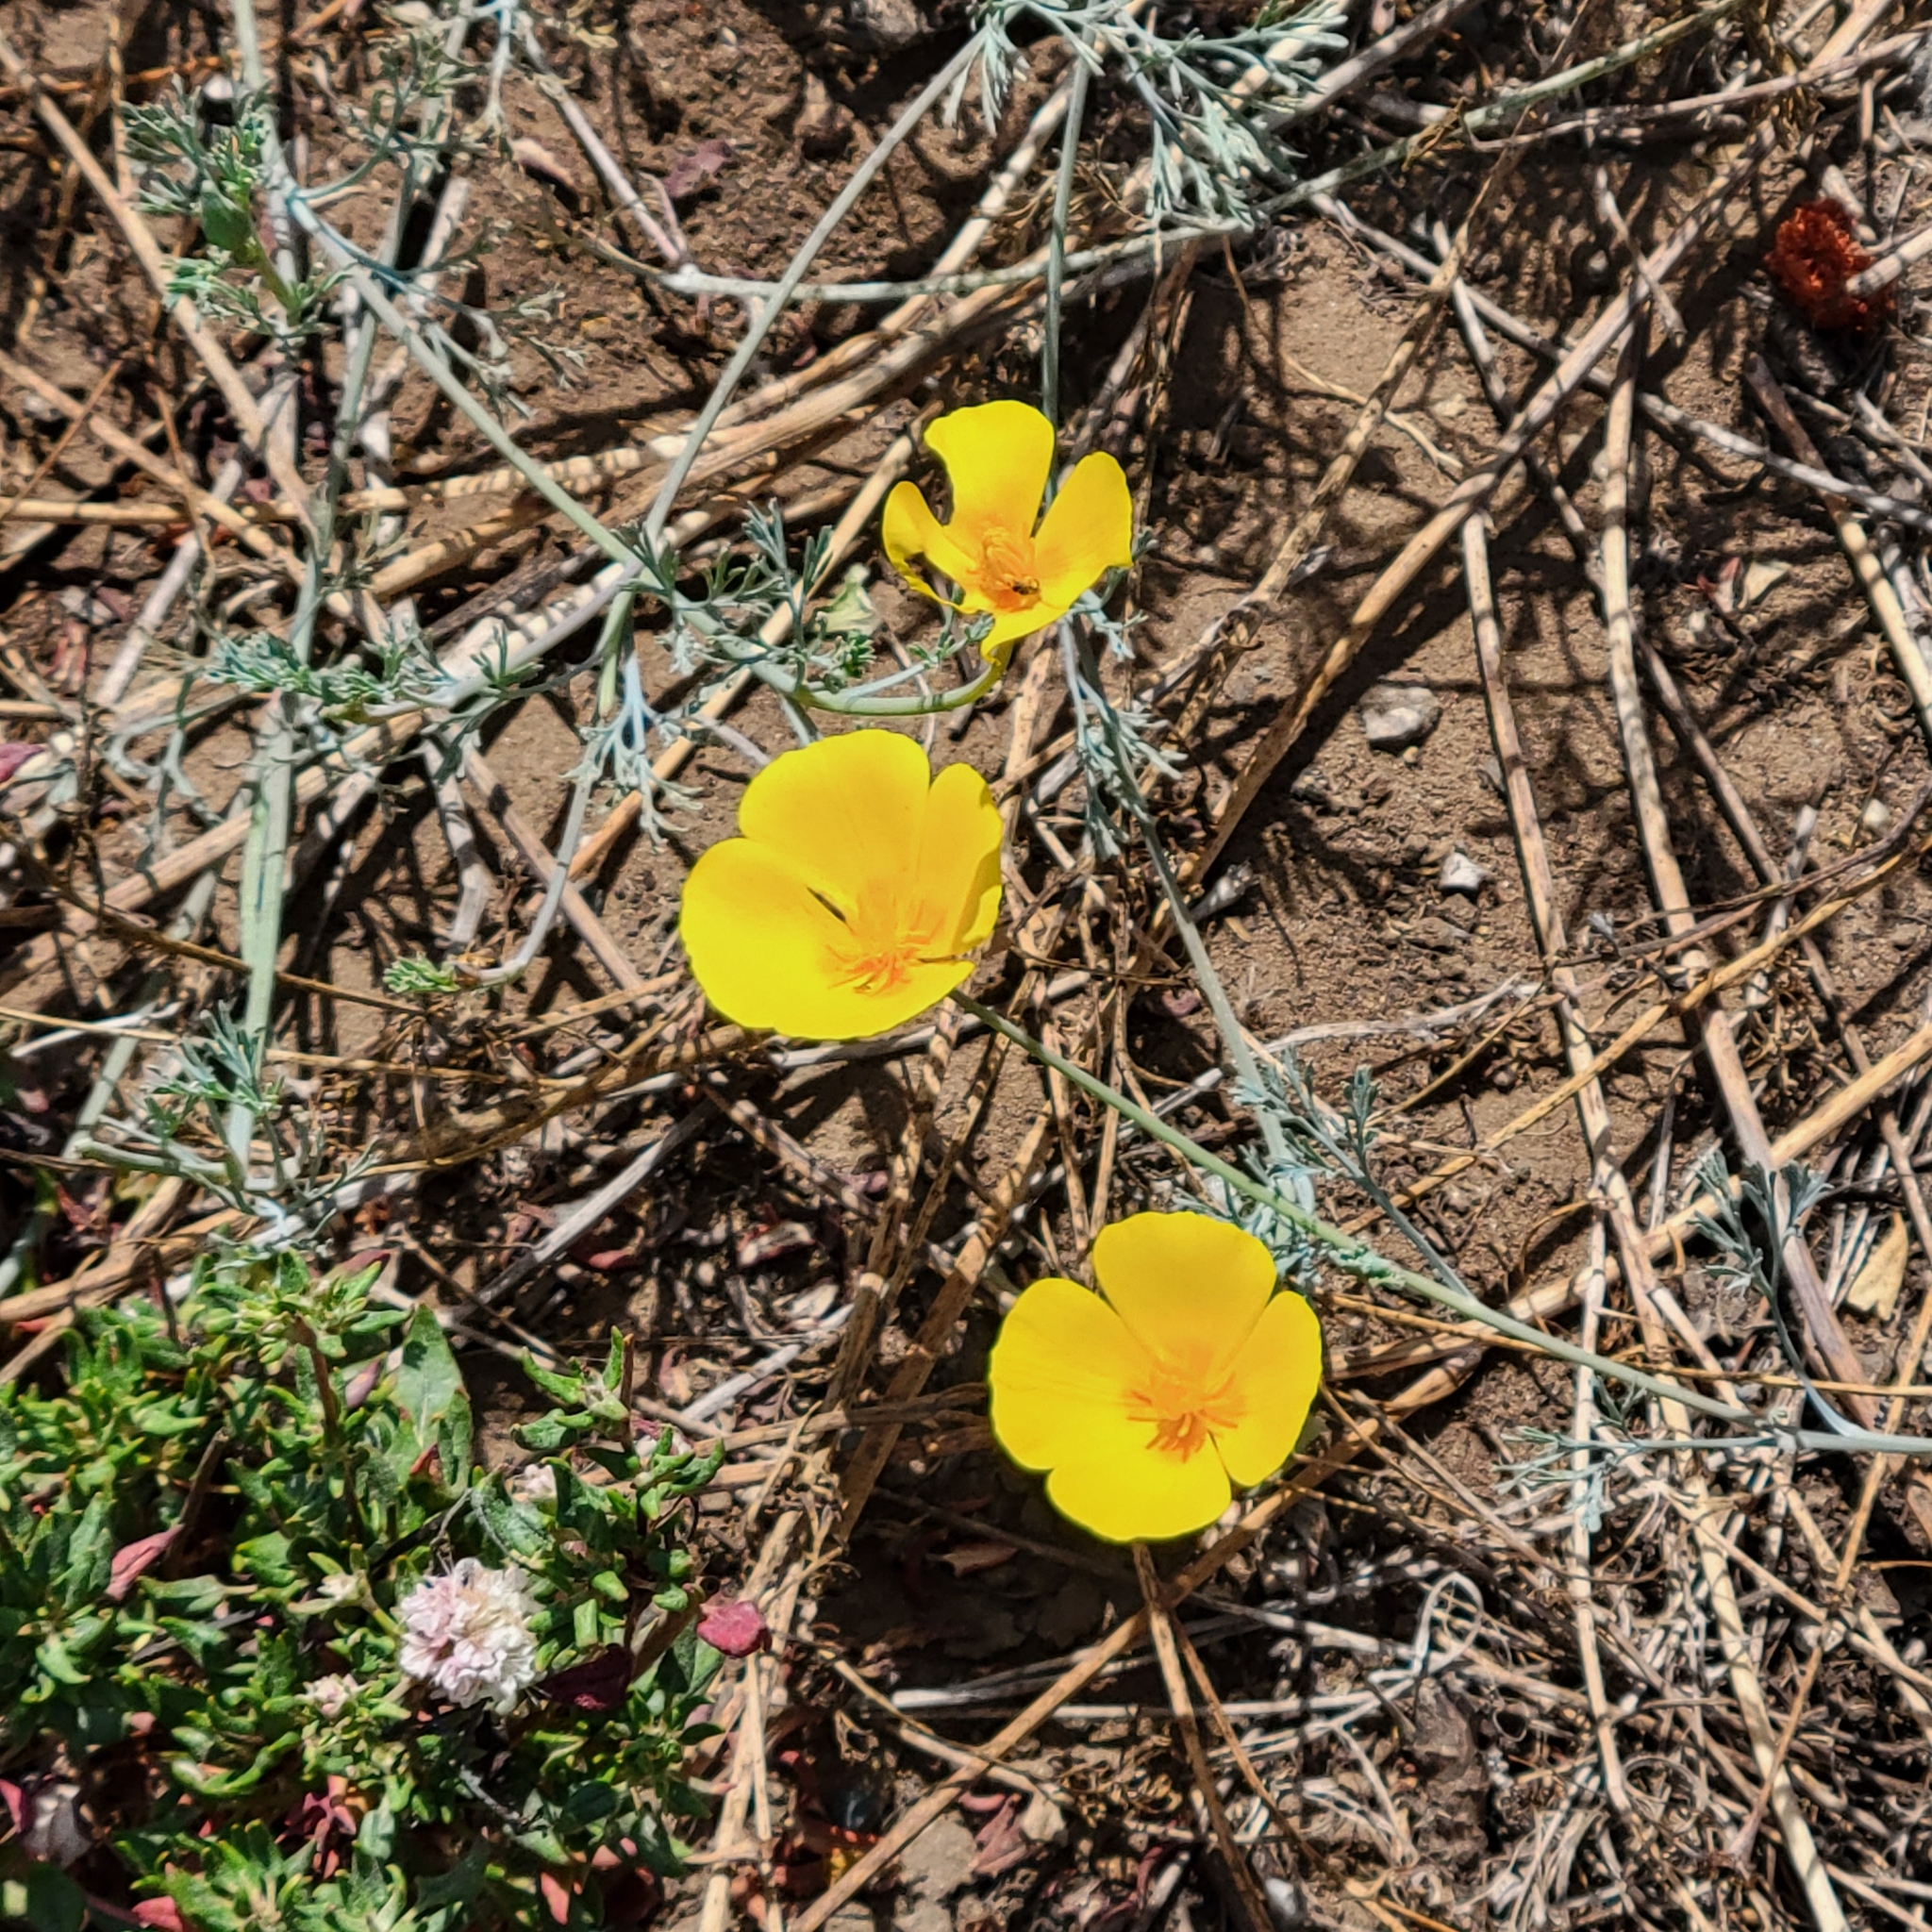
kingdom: Plantae
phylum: Tracheophyta
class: Magnoliopsida
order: Ranunculales
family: Papaveraceae
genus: Eschscholzia
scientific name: Eschscholzia californica
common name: California poppy
